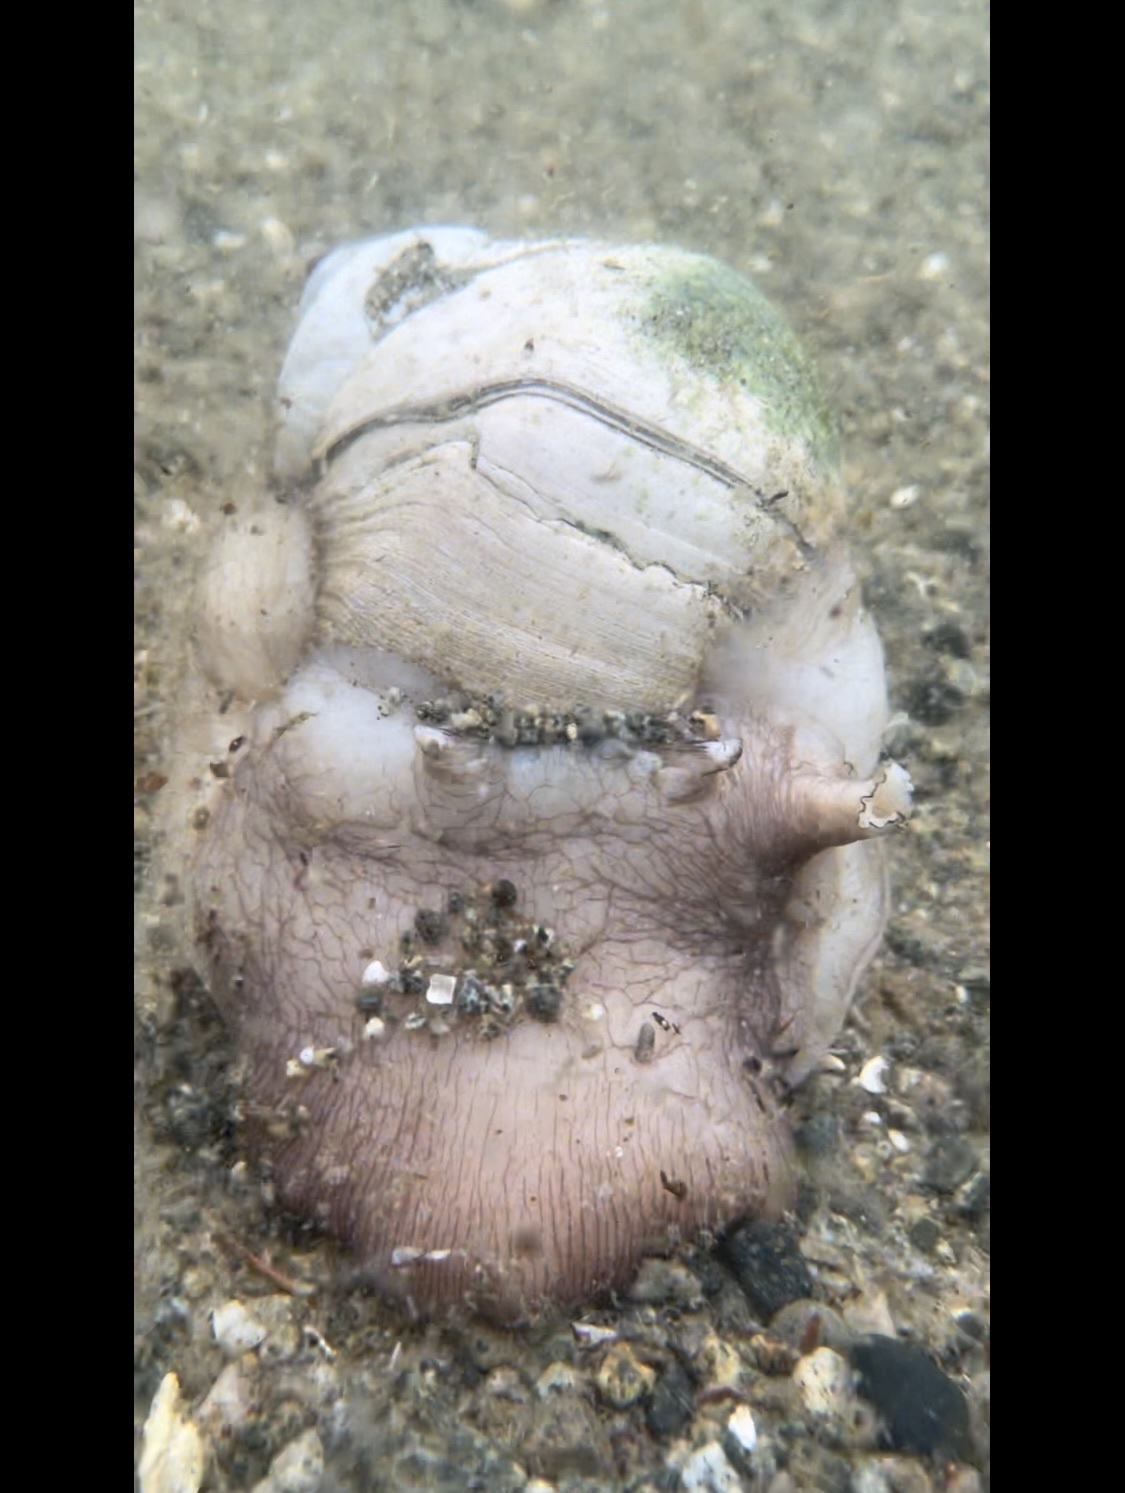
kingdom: Animalia
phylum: Mollusca
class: Gastropoda
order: Littorinimorpha
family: Naticidae
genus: Neverita
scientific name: Neverita lewisii
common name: Lewis' moonsnail
